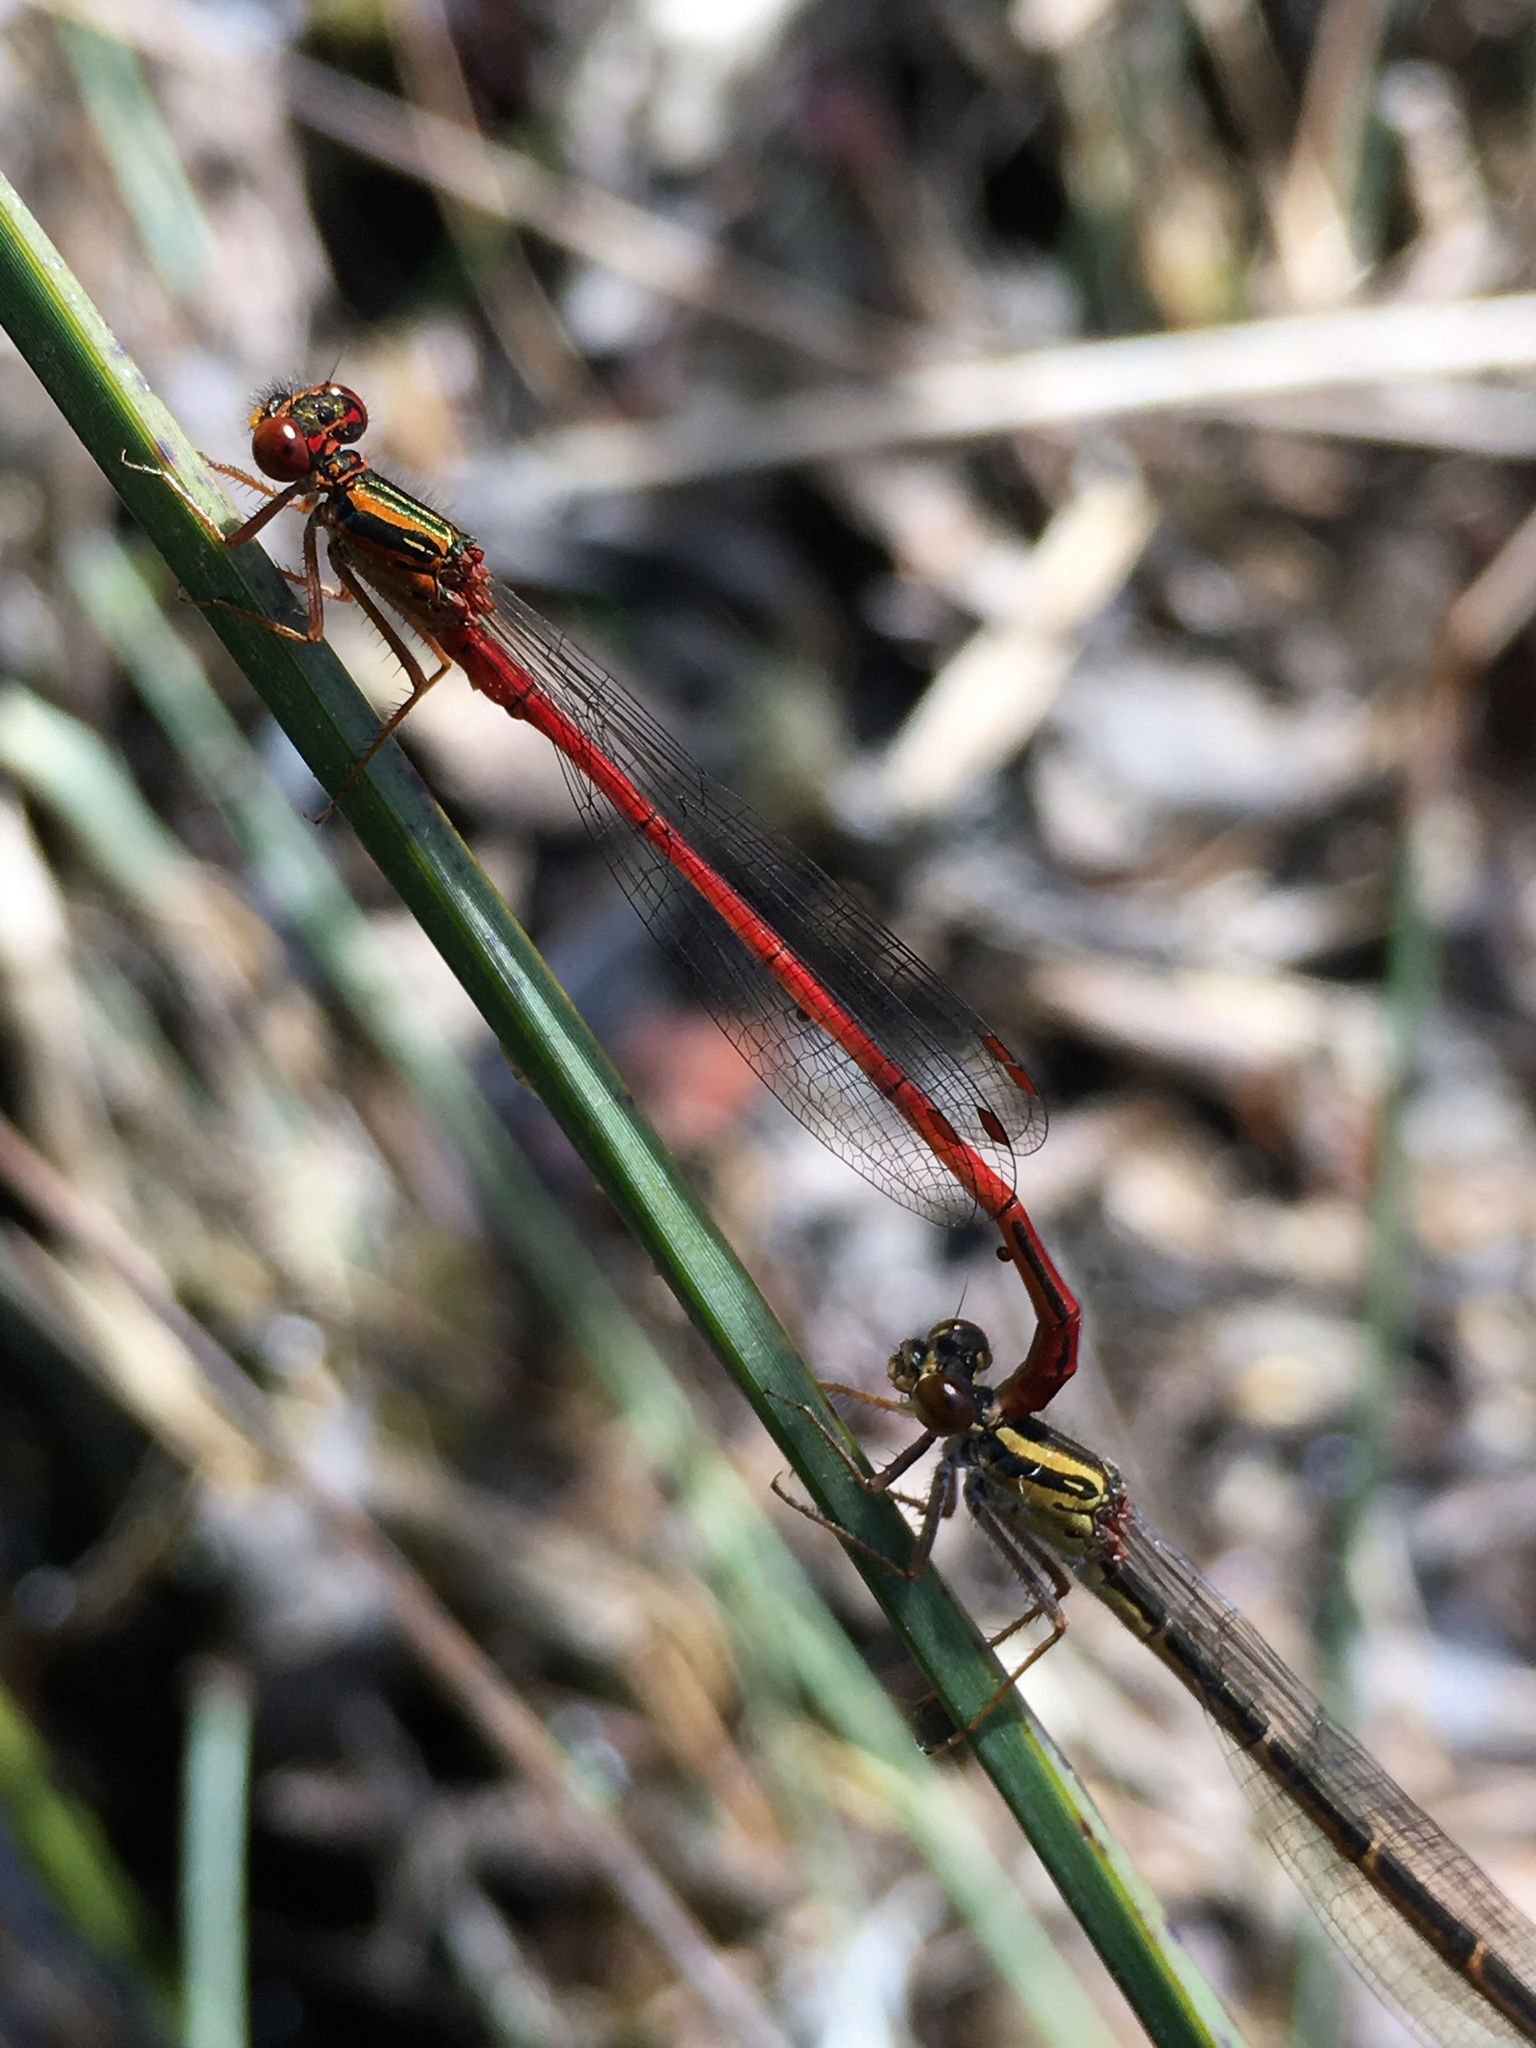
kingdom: Animalia
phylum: Arthropoda
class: Insecta
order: Odonata
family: Coenagrionidae
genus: Xanthocnemis
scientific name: Xanthocnemis zealandica
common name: Common redcoat damselfly
